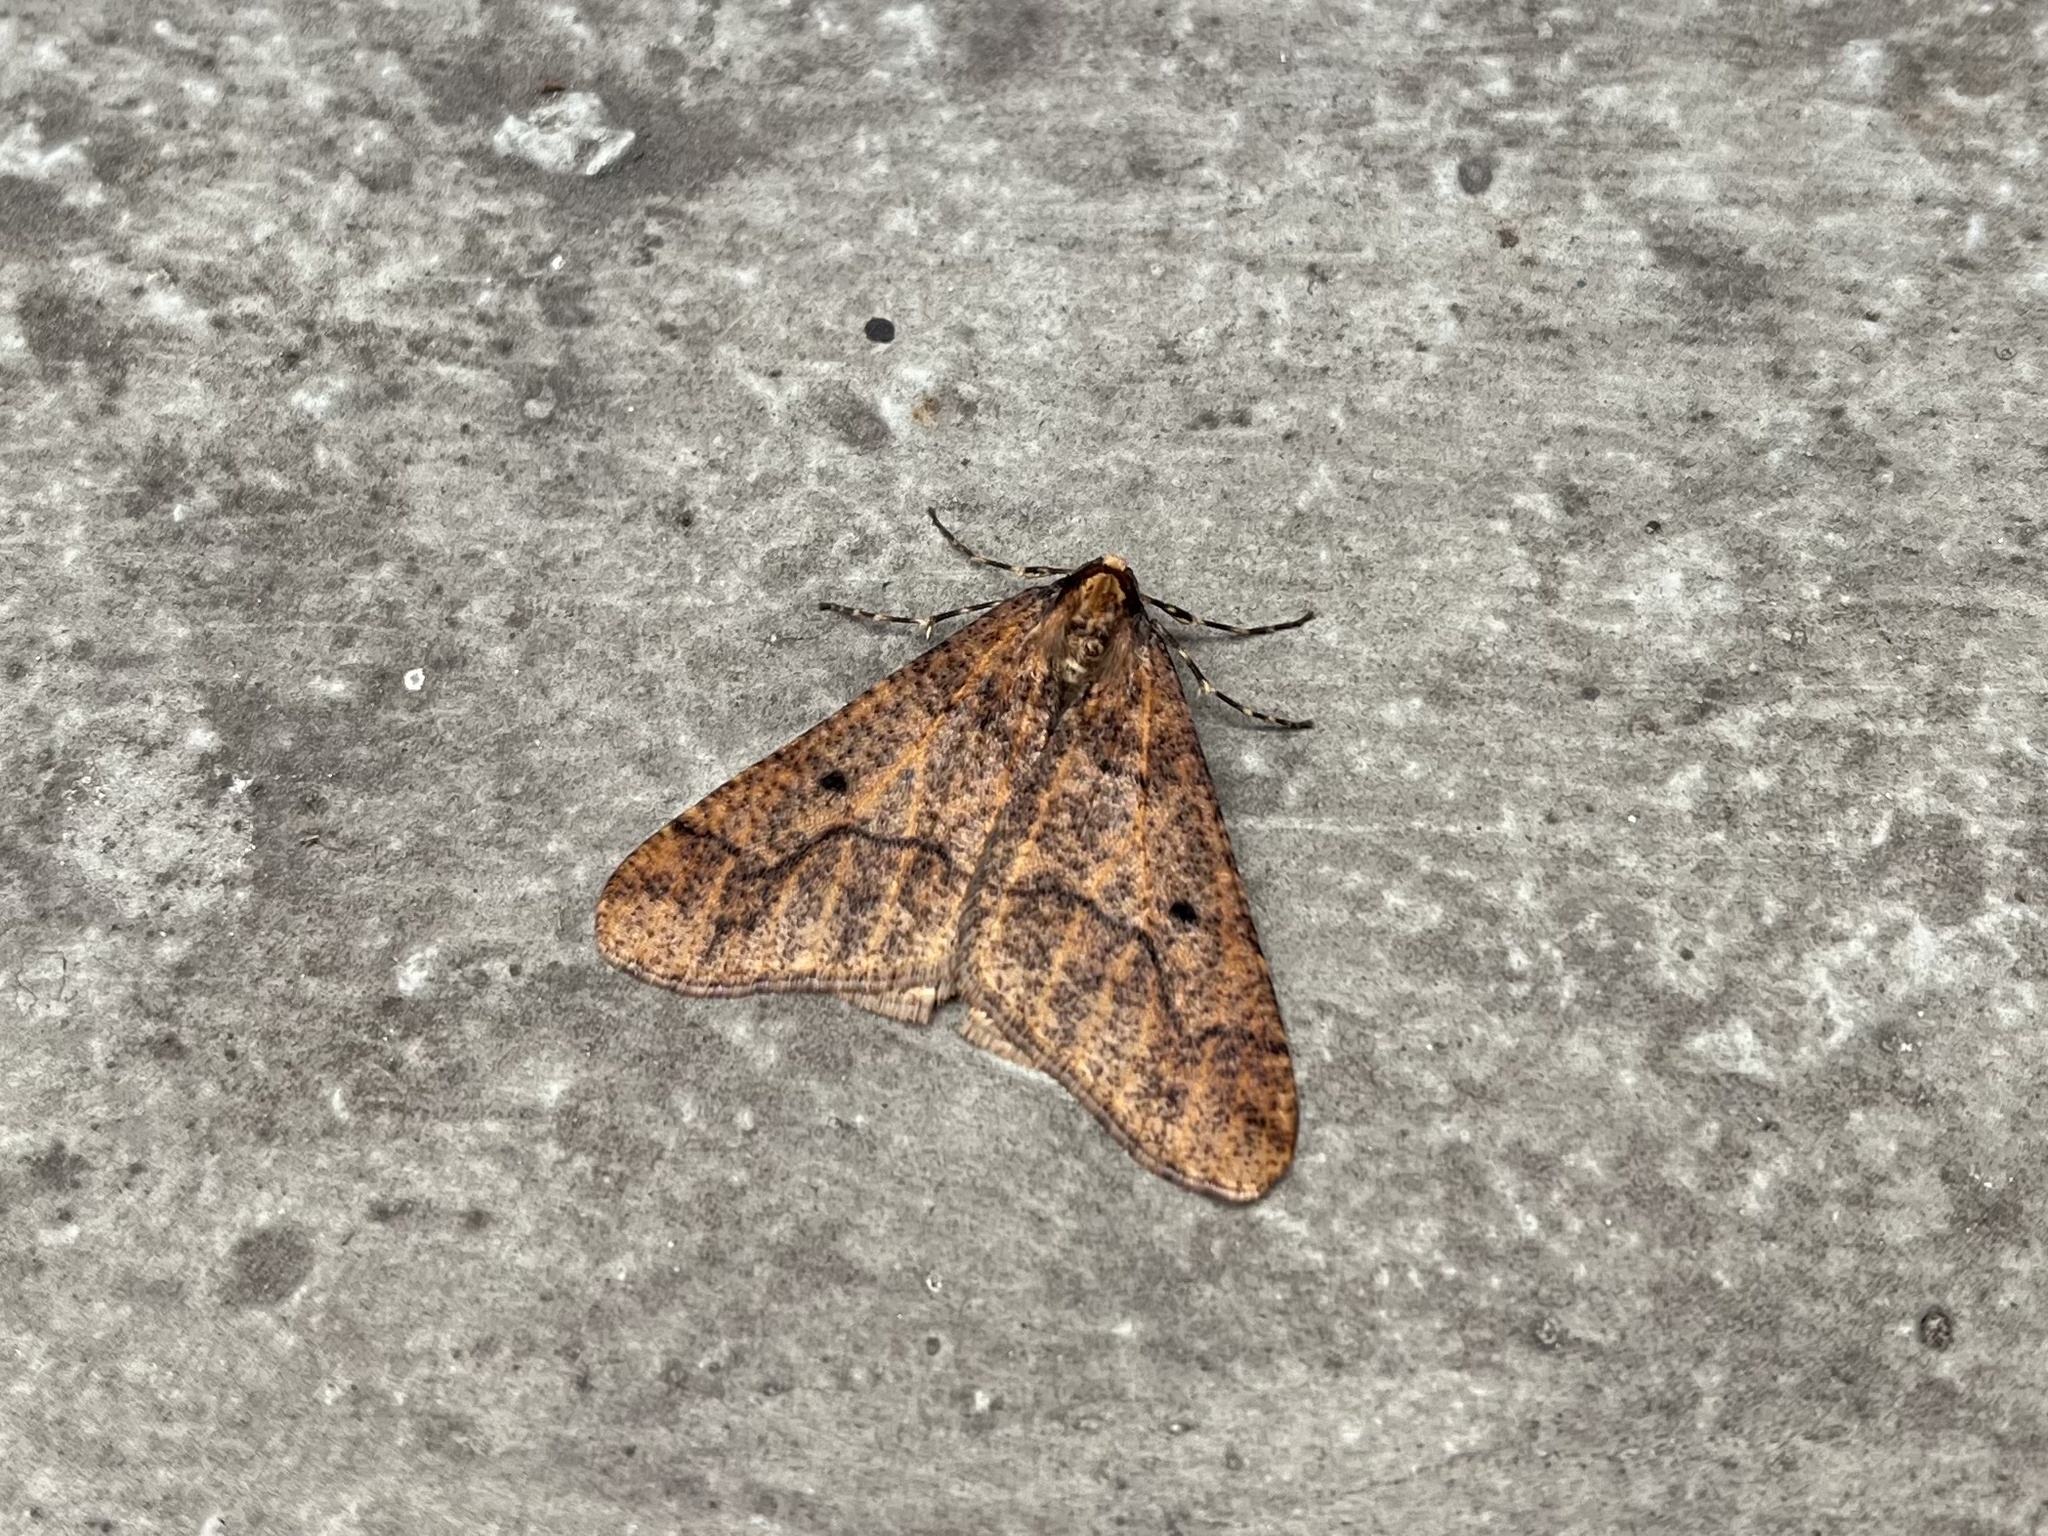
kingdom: Animalia
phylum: Arthropoda
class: Insecta
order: Lepidoptera
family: Geometridae
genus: Erannis
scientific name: Erannis defoliaria
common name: Mottled umber
